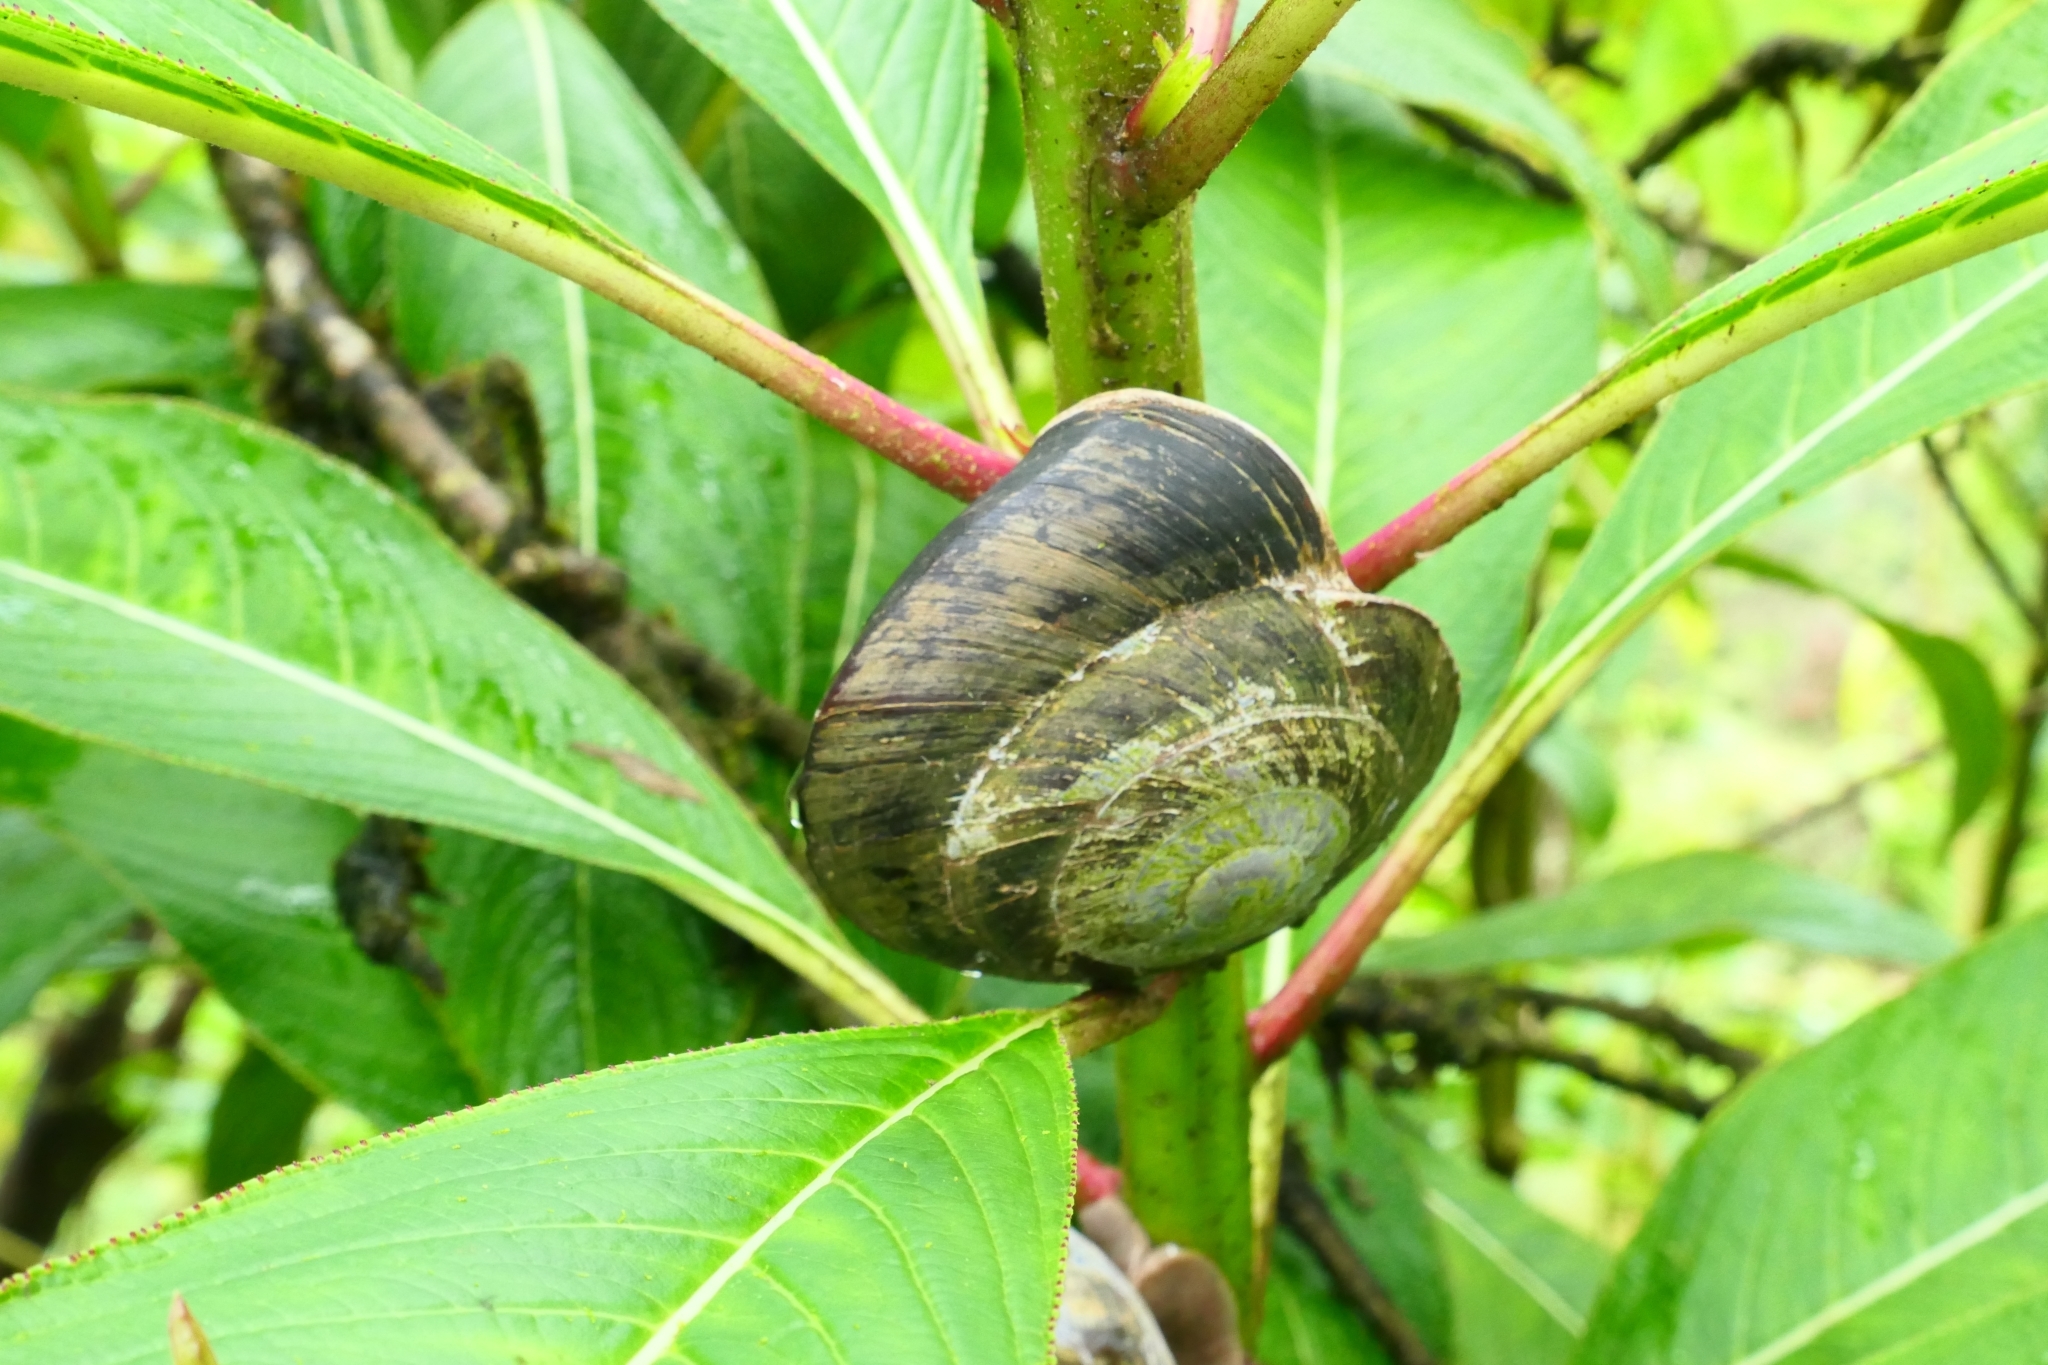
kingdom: Animalia
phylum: Mollusca
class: Gastropoda
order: Stylommatophora
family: Solaropsidae
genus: Caracolus
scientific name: Caracolus carocolla
